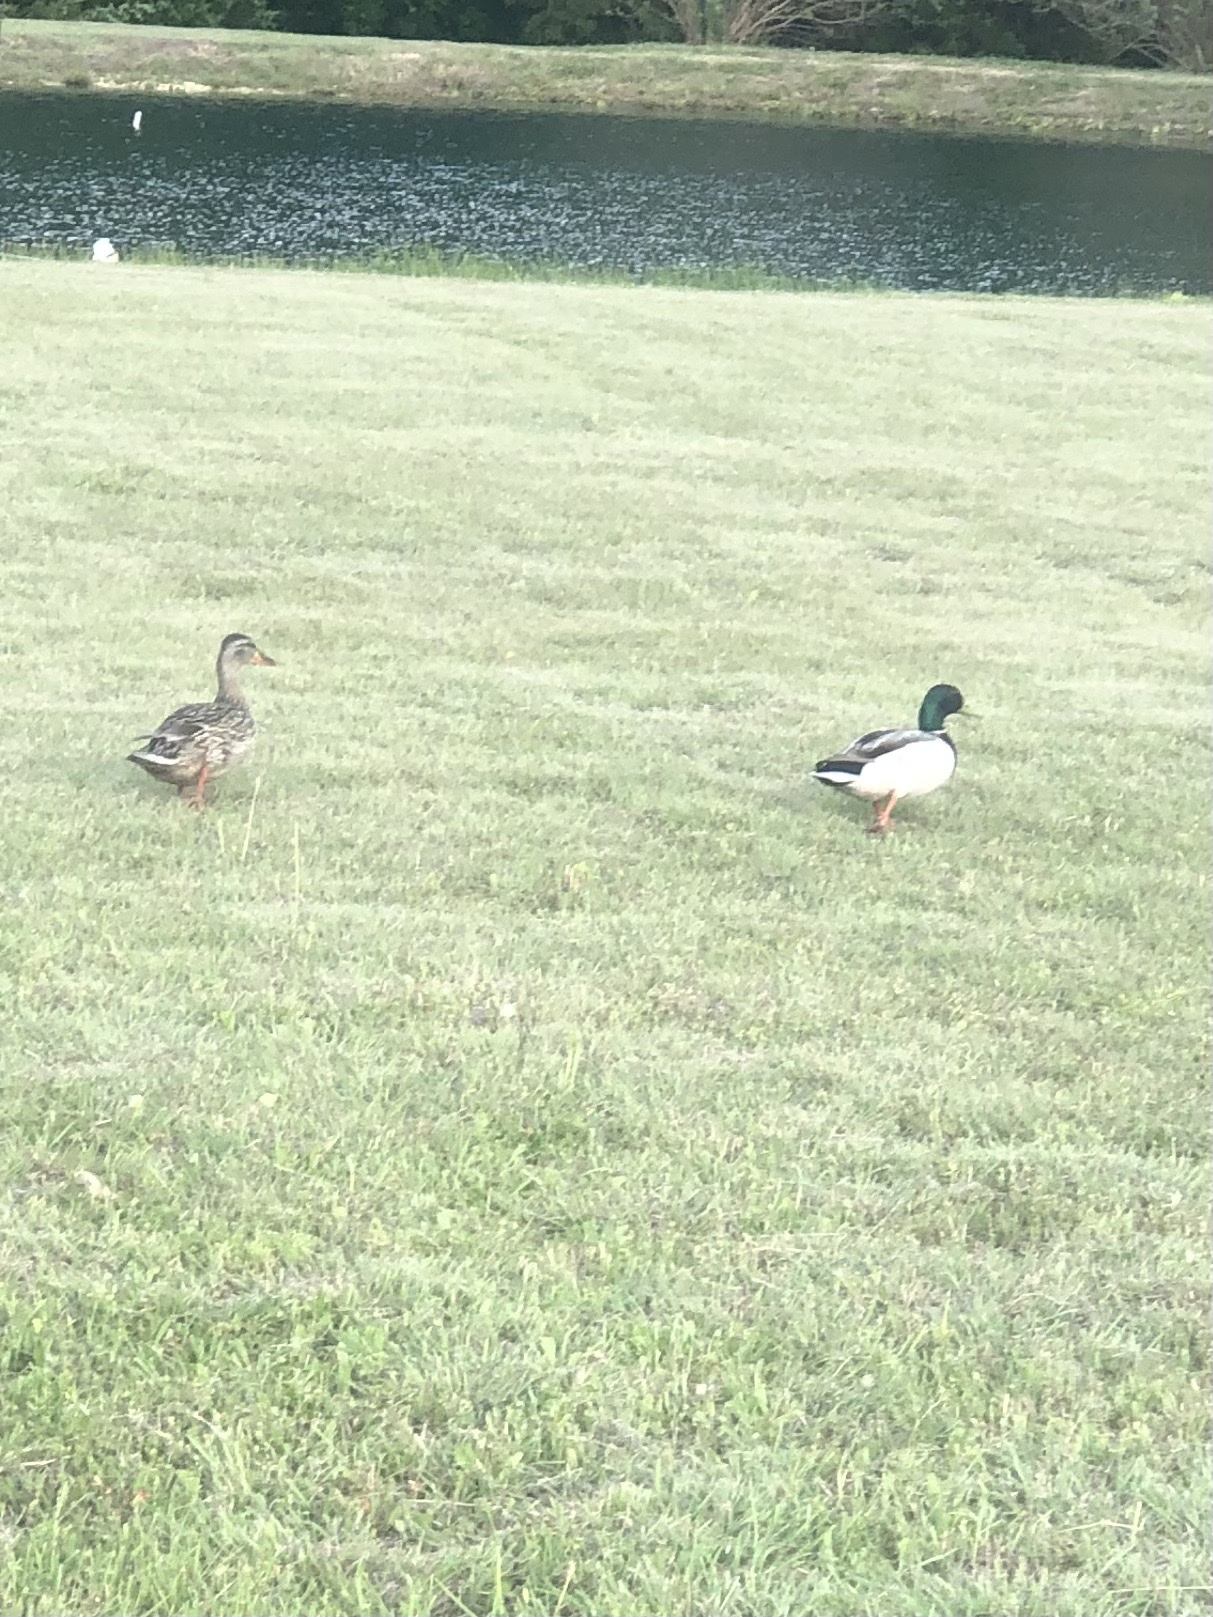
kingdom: Animalia
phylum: Chordata
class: Aves
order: Anseriformes
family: Anatidae
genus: Anas
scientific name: Anas platyrhynchos
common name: Mallard
